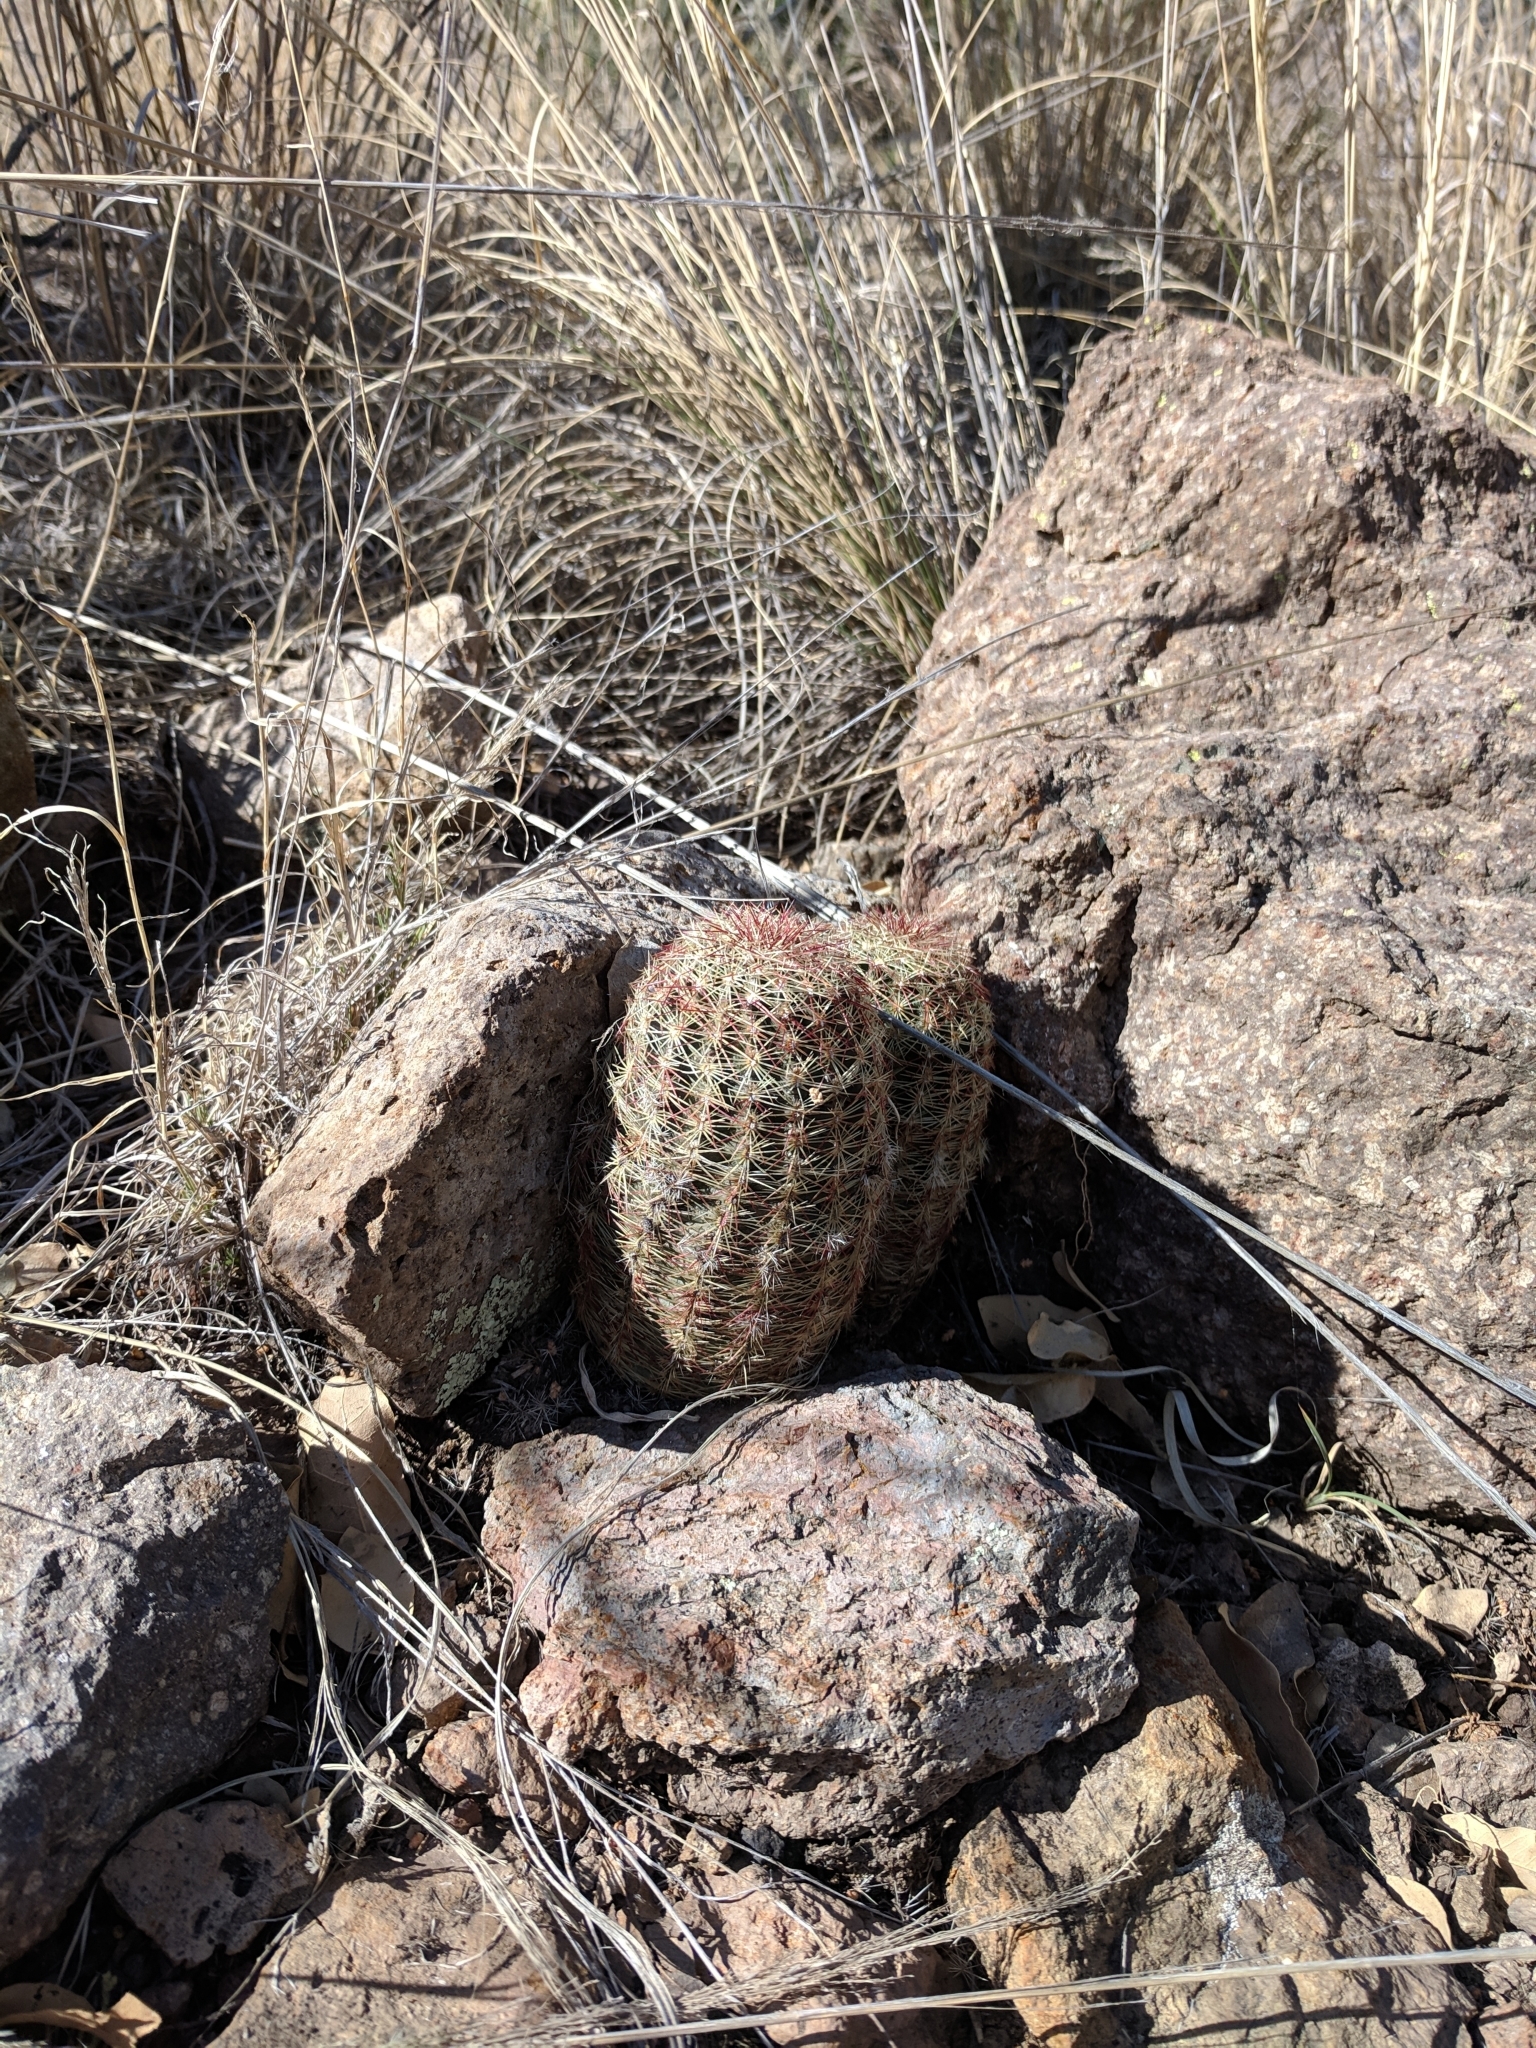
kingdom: Plantae
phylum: Tracheophyta
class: Magnoliopsida
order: Caryophyllales
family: Cactaceae
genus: Echinocereus
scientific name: Echinocereus viridiflorus
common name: Nylon hedgehog cactus
